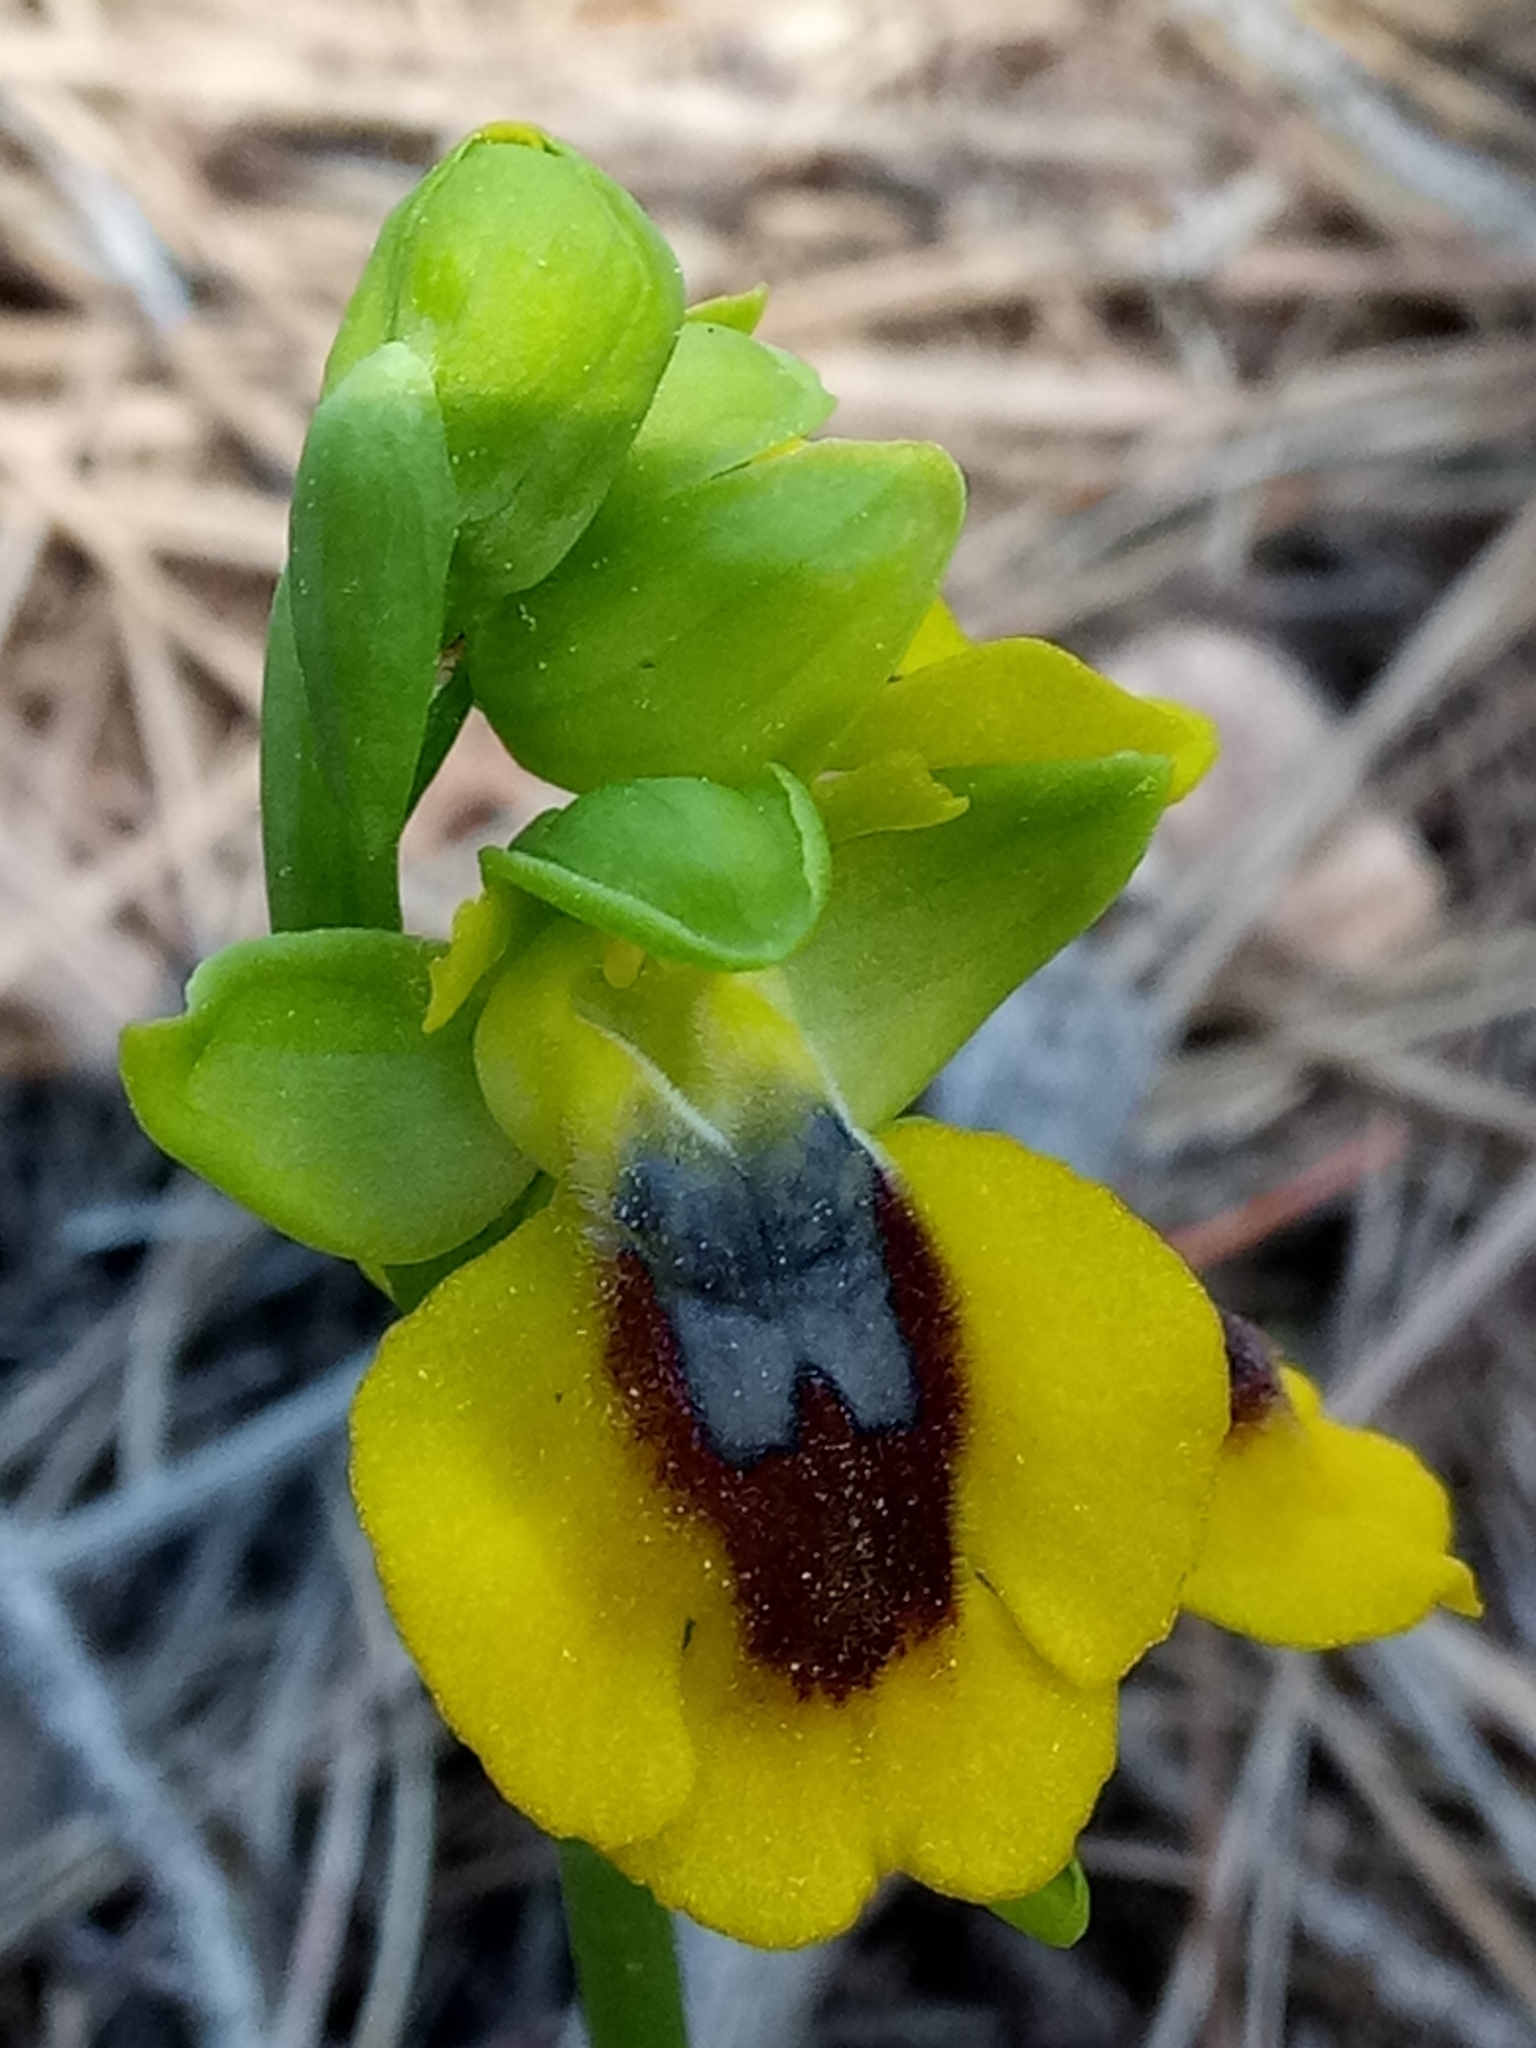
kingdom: Plantae
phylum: Tracheophyta
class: Liliopsida
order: Asparagales
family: Orchidaceae
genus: Ophrys
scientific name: Ophrys lutea
